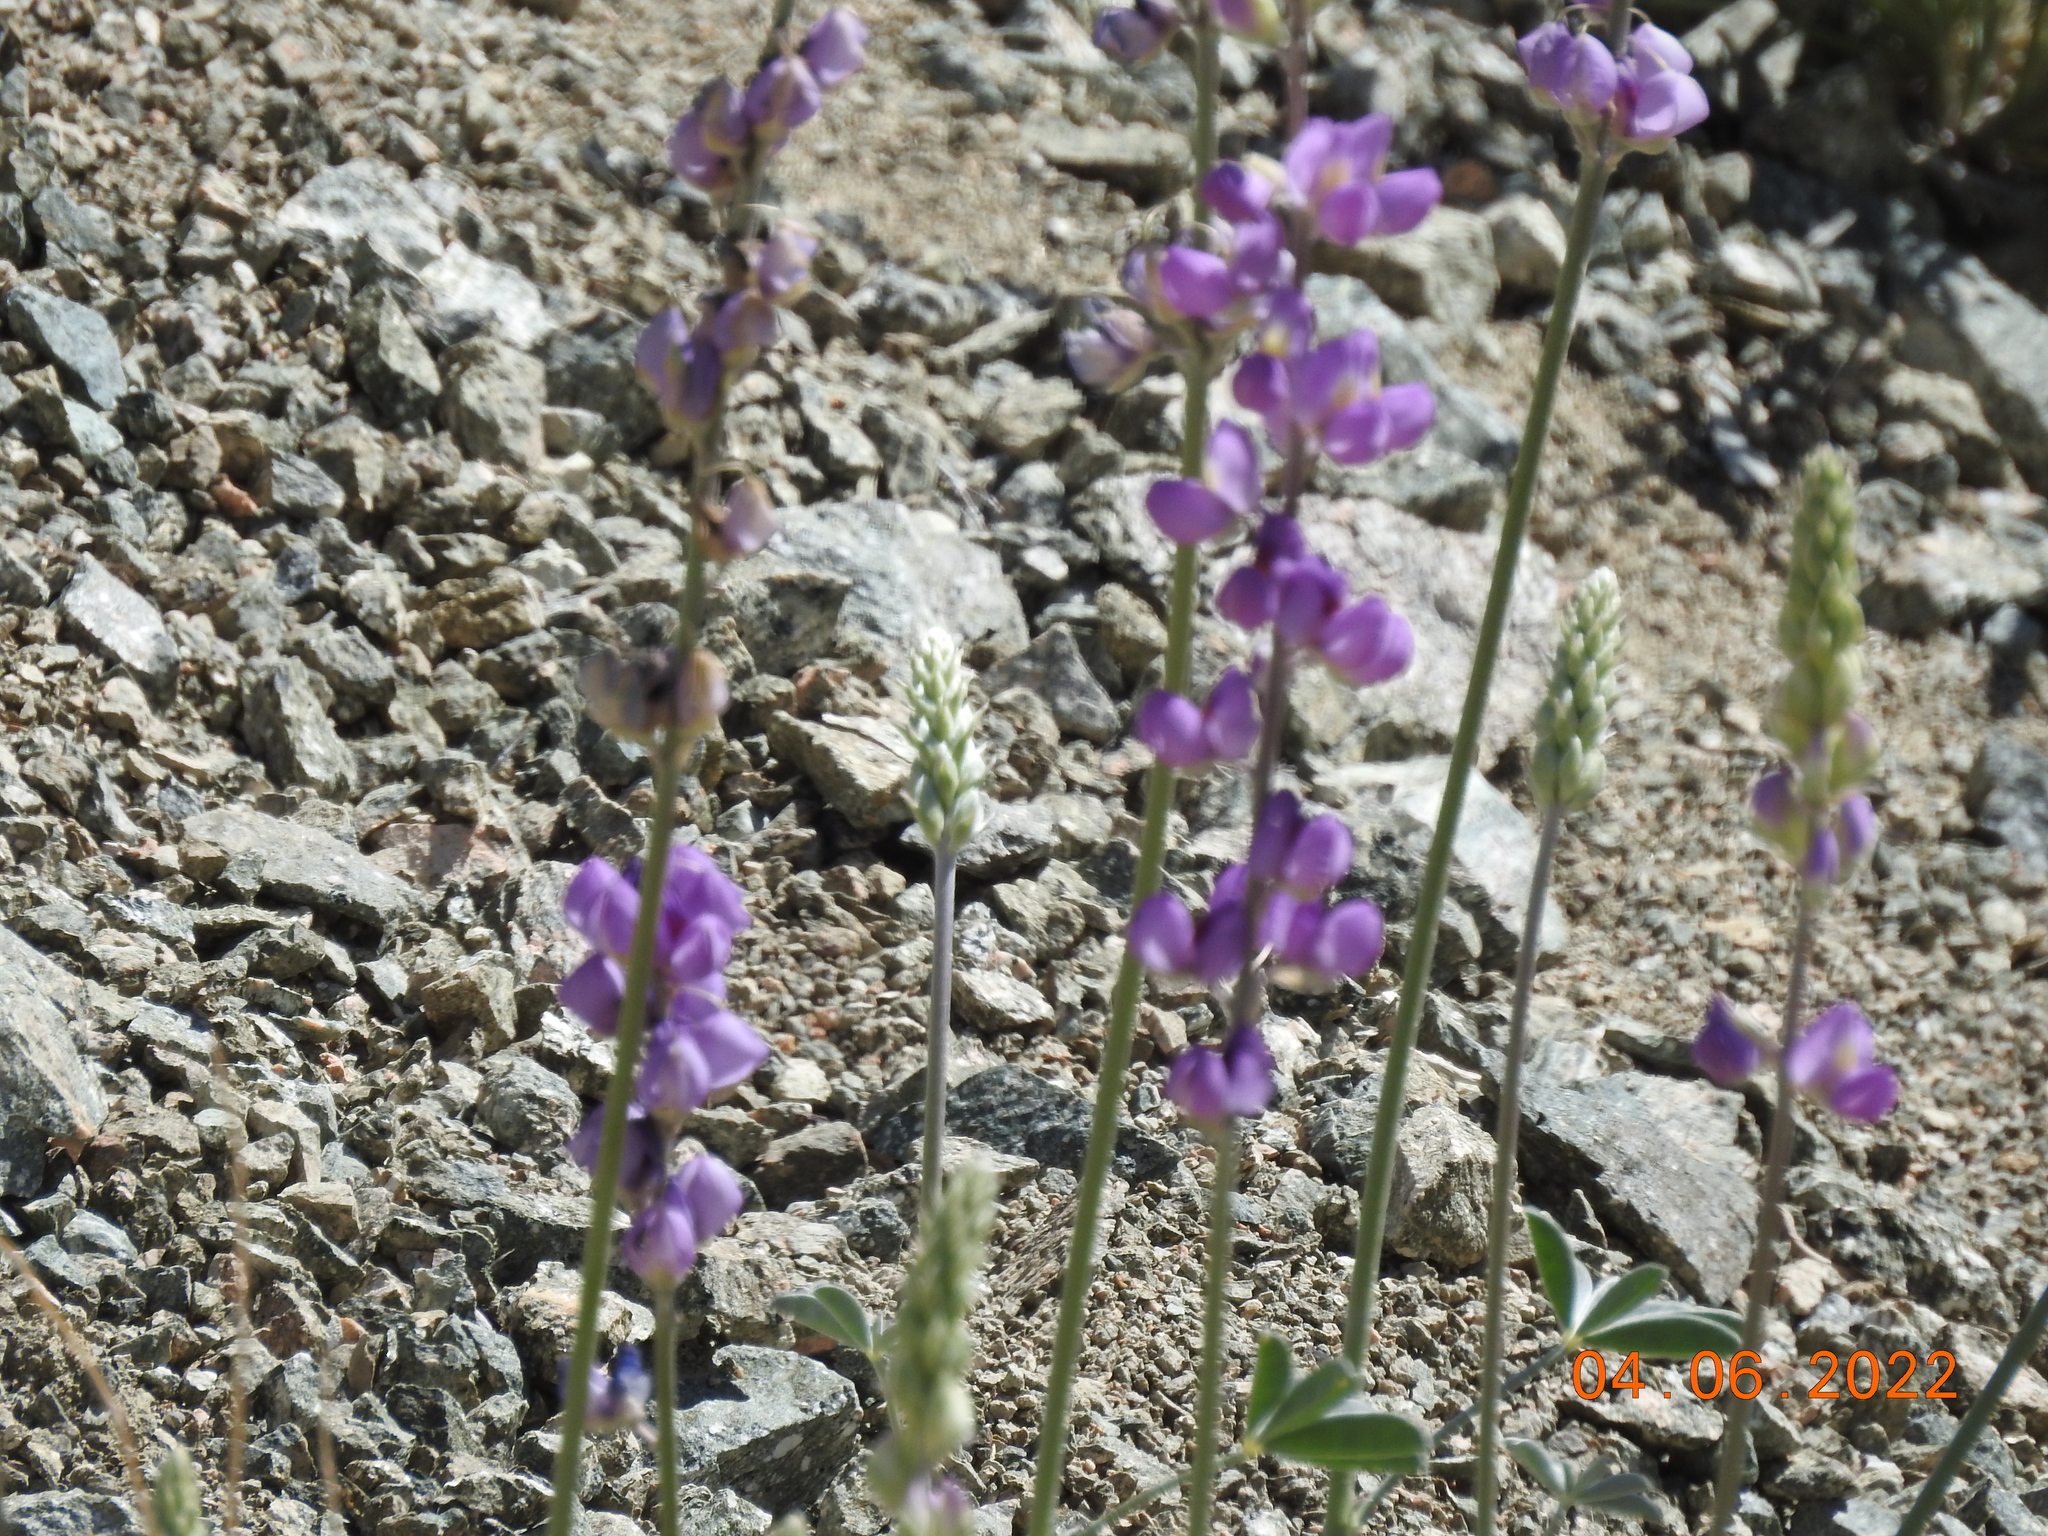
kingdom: Plantae
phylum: Tracheophyta
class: Magnoliopsida
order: Fabales
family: Fabaceae
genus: Lupinus
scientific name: Lupinus excubitus
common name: Grape soda lupine
